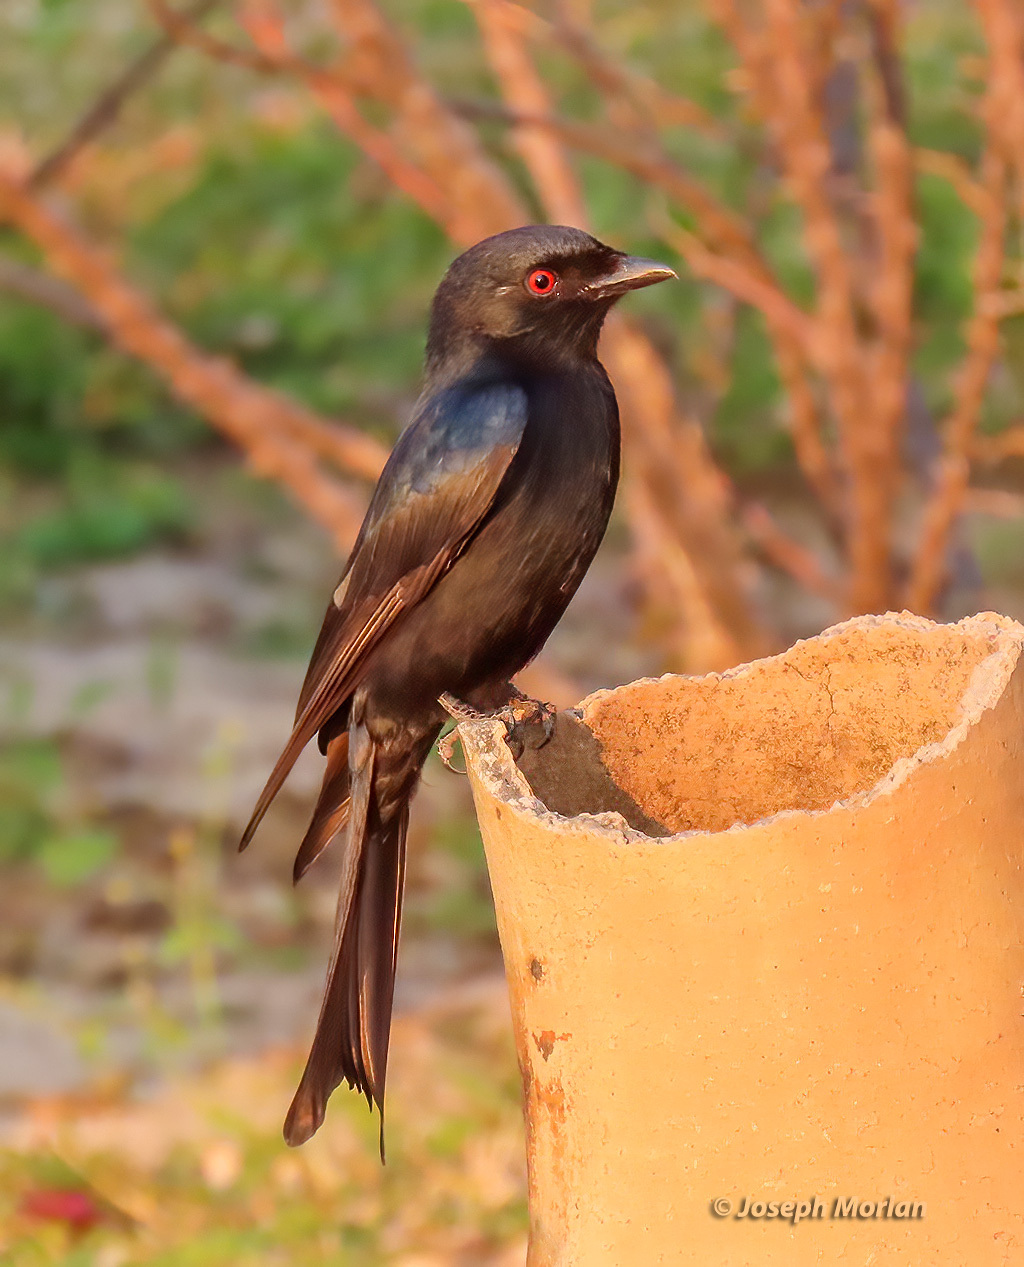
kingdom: Animalia
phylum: Chordata
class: Aves
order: Passeriformes
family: Dicruridae
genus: Dicrurus
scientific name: Dicrurus adsimilis
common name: Fork-tailed drongo
